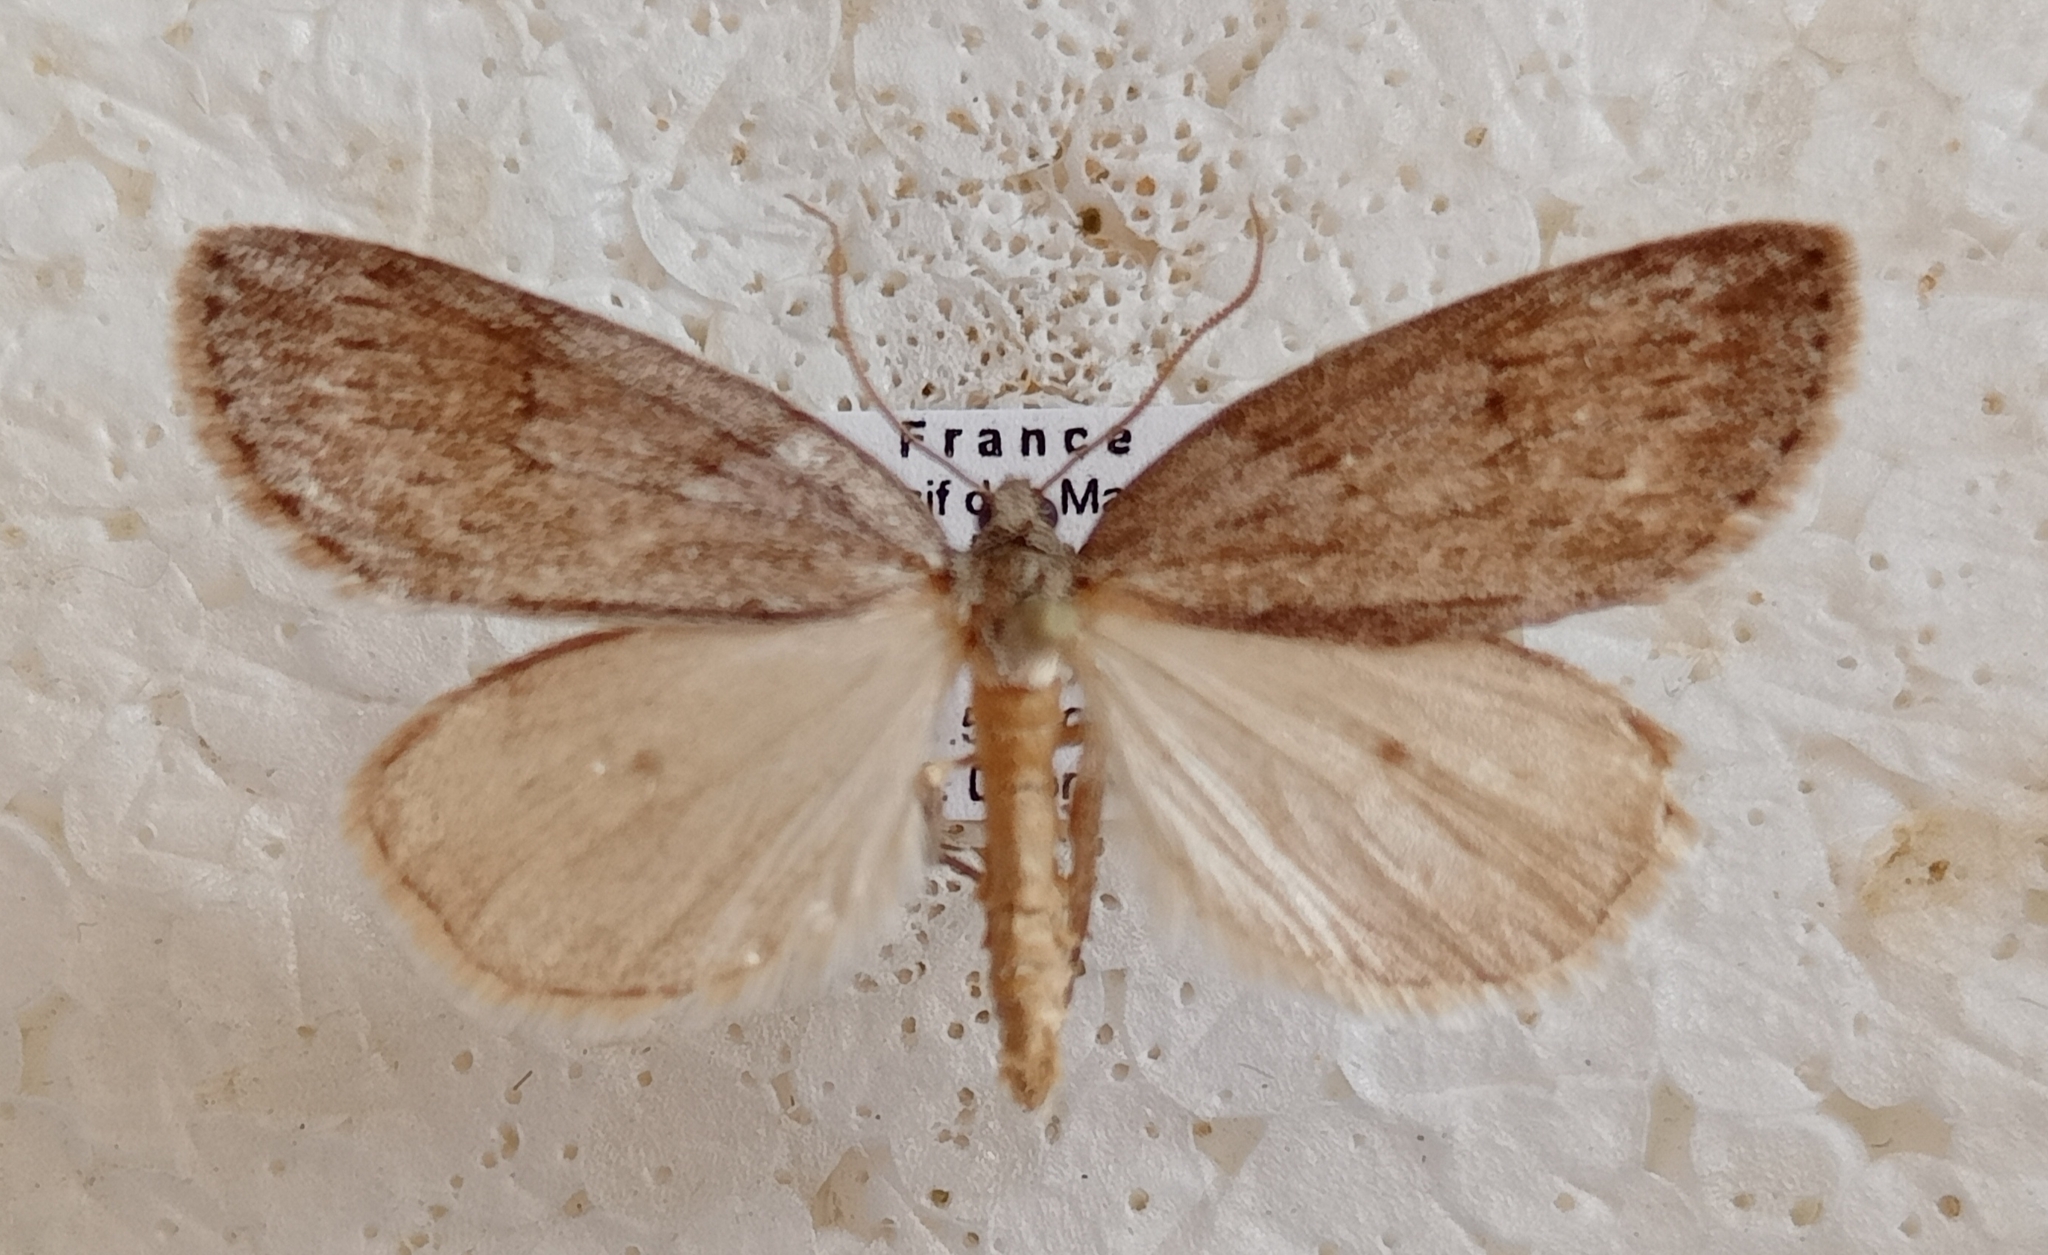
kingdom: Animalia
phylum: Arthropoda
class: Insecta
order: Lepidoptera
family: Geometridae
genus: Pachycnemia
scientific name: Pachycnemia hippocastanaria
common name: Horse chestnut
